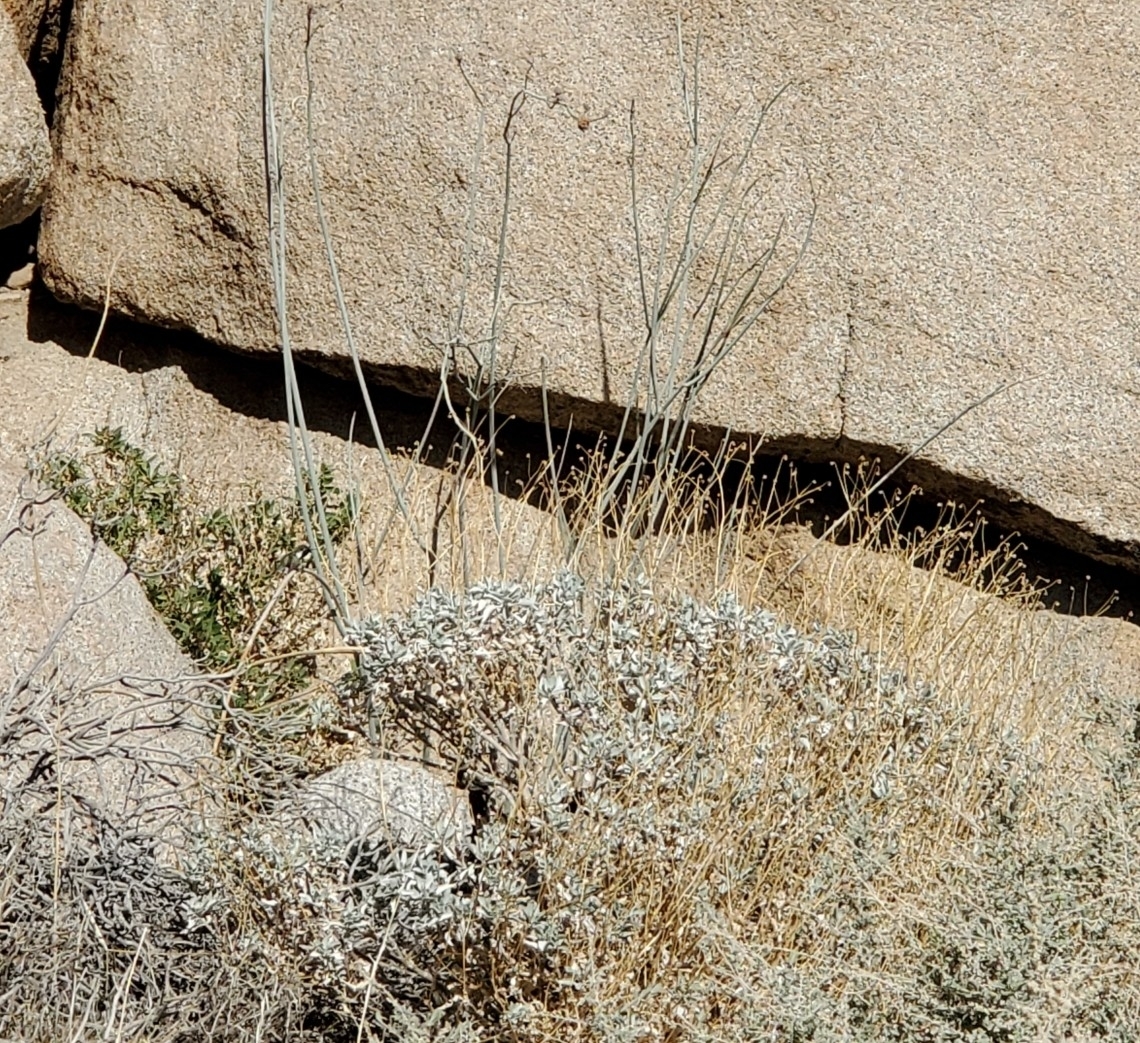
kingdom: Plantae
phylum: Tracheophyta
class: Magnoliopsida
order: Gentianales
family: Apocynaceae
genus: Asclepias
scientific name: Asclepias albicans
